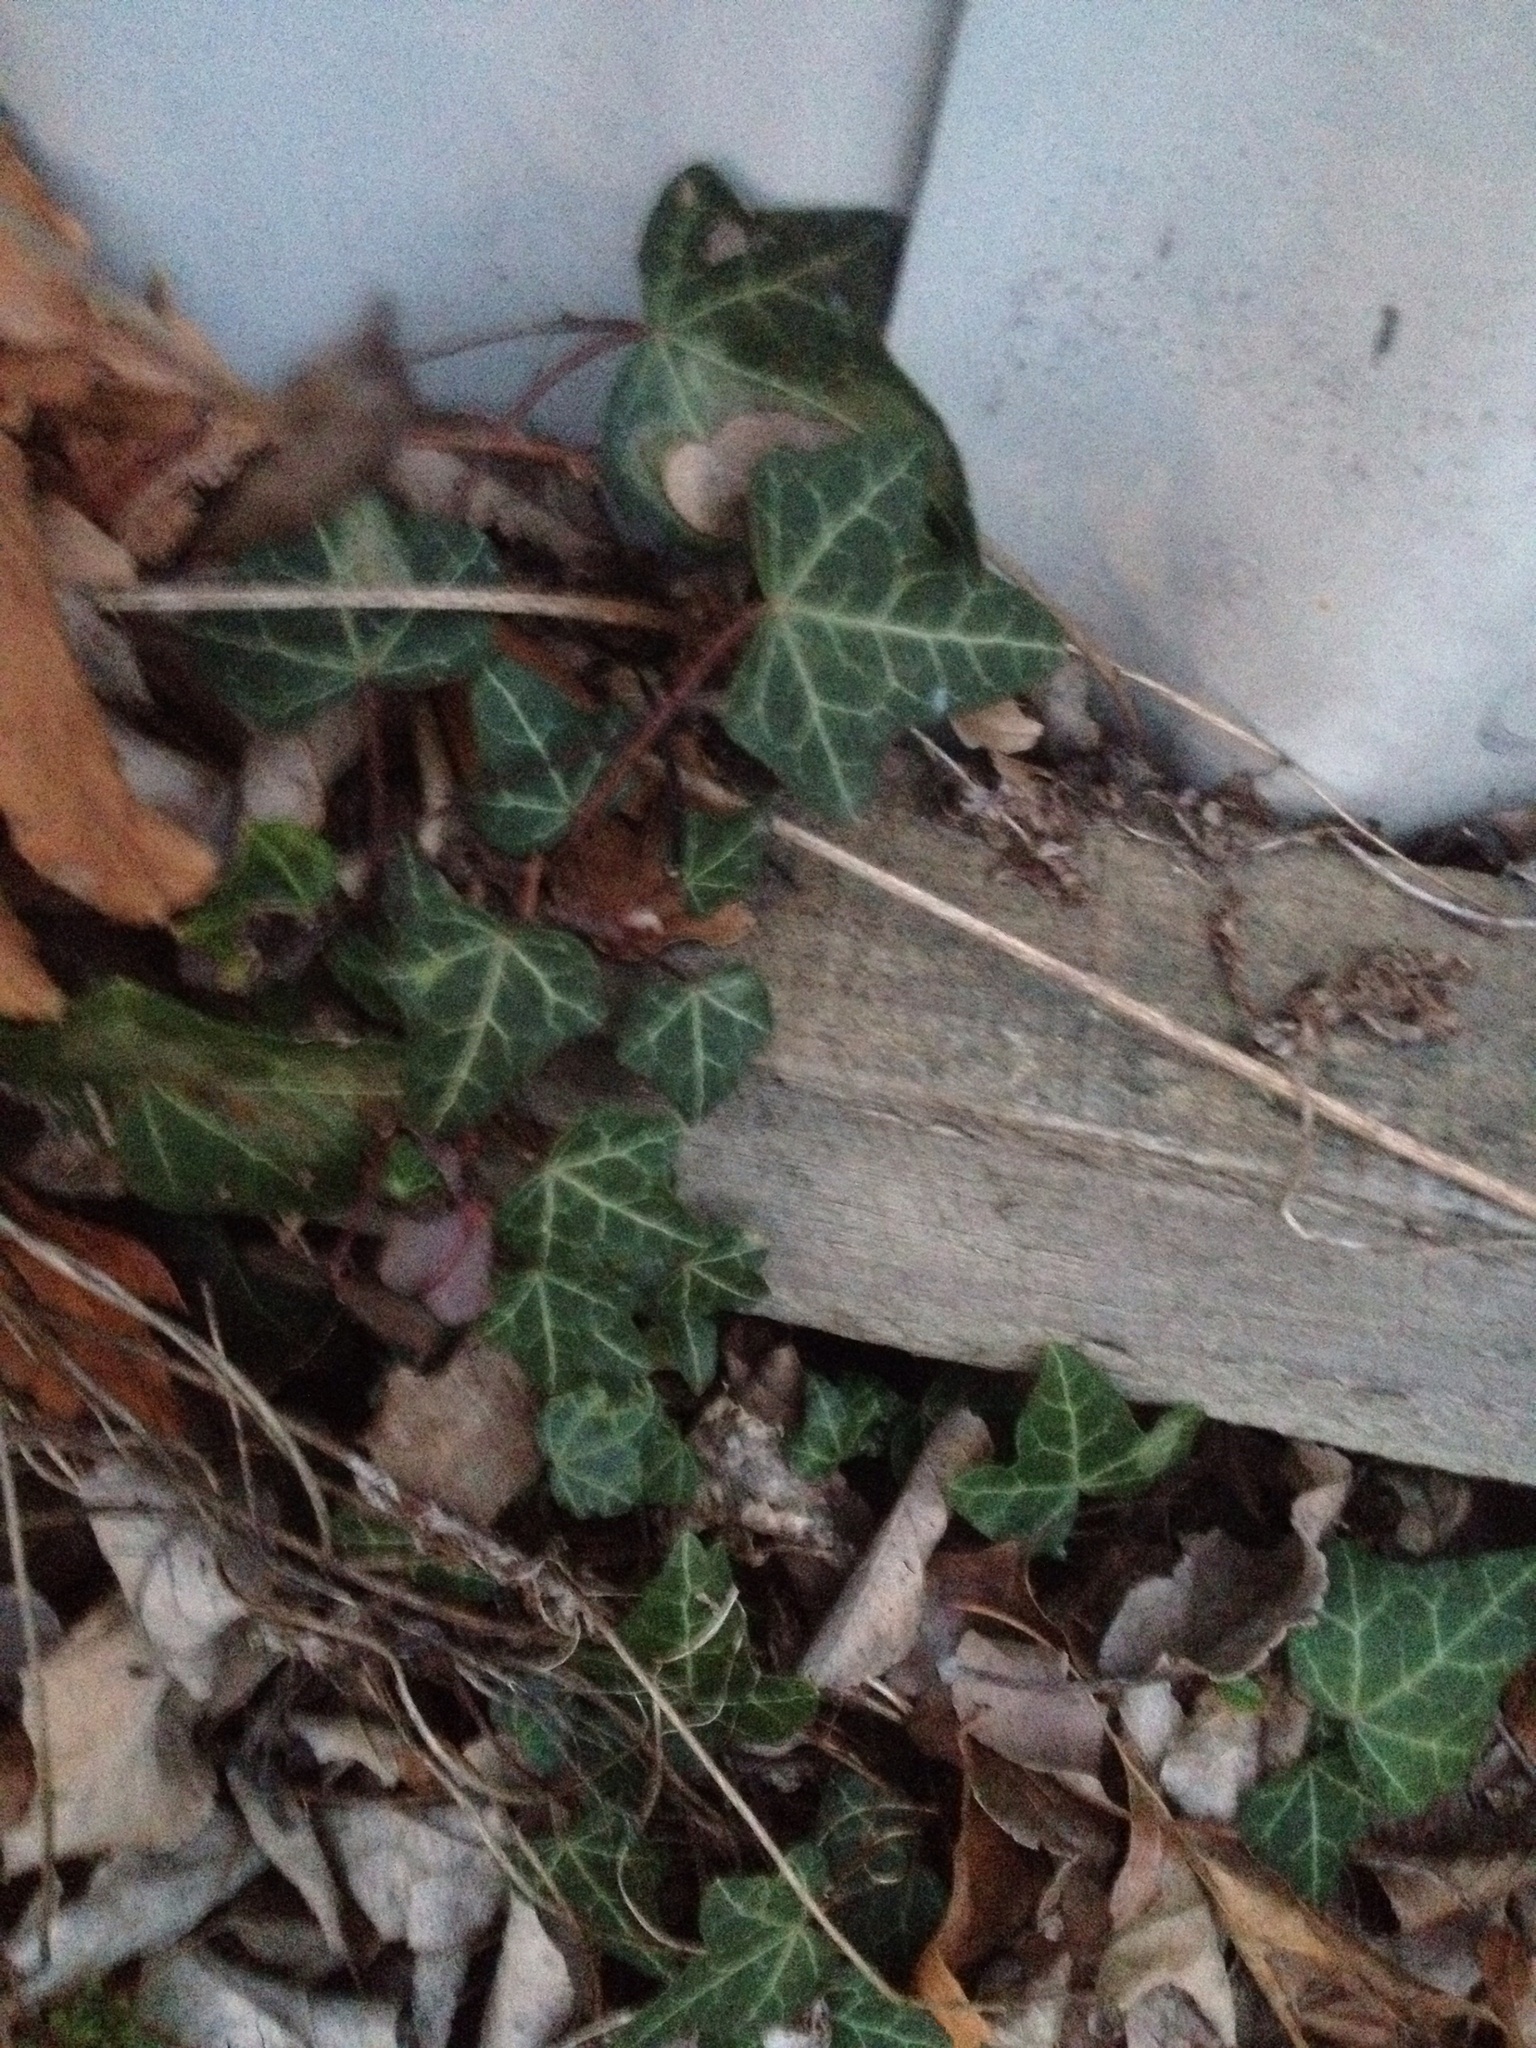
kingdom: Plantae
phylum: Tracheophyta
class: Magnoliopsida
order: Apiales
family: Araliaceae
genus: Hedera
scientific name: Hedera helix
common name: Ivy
